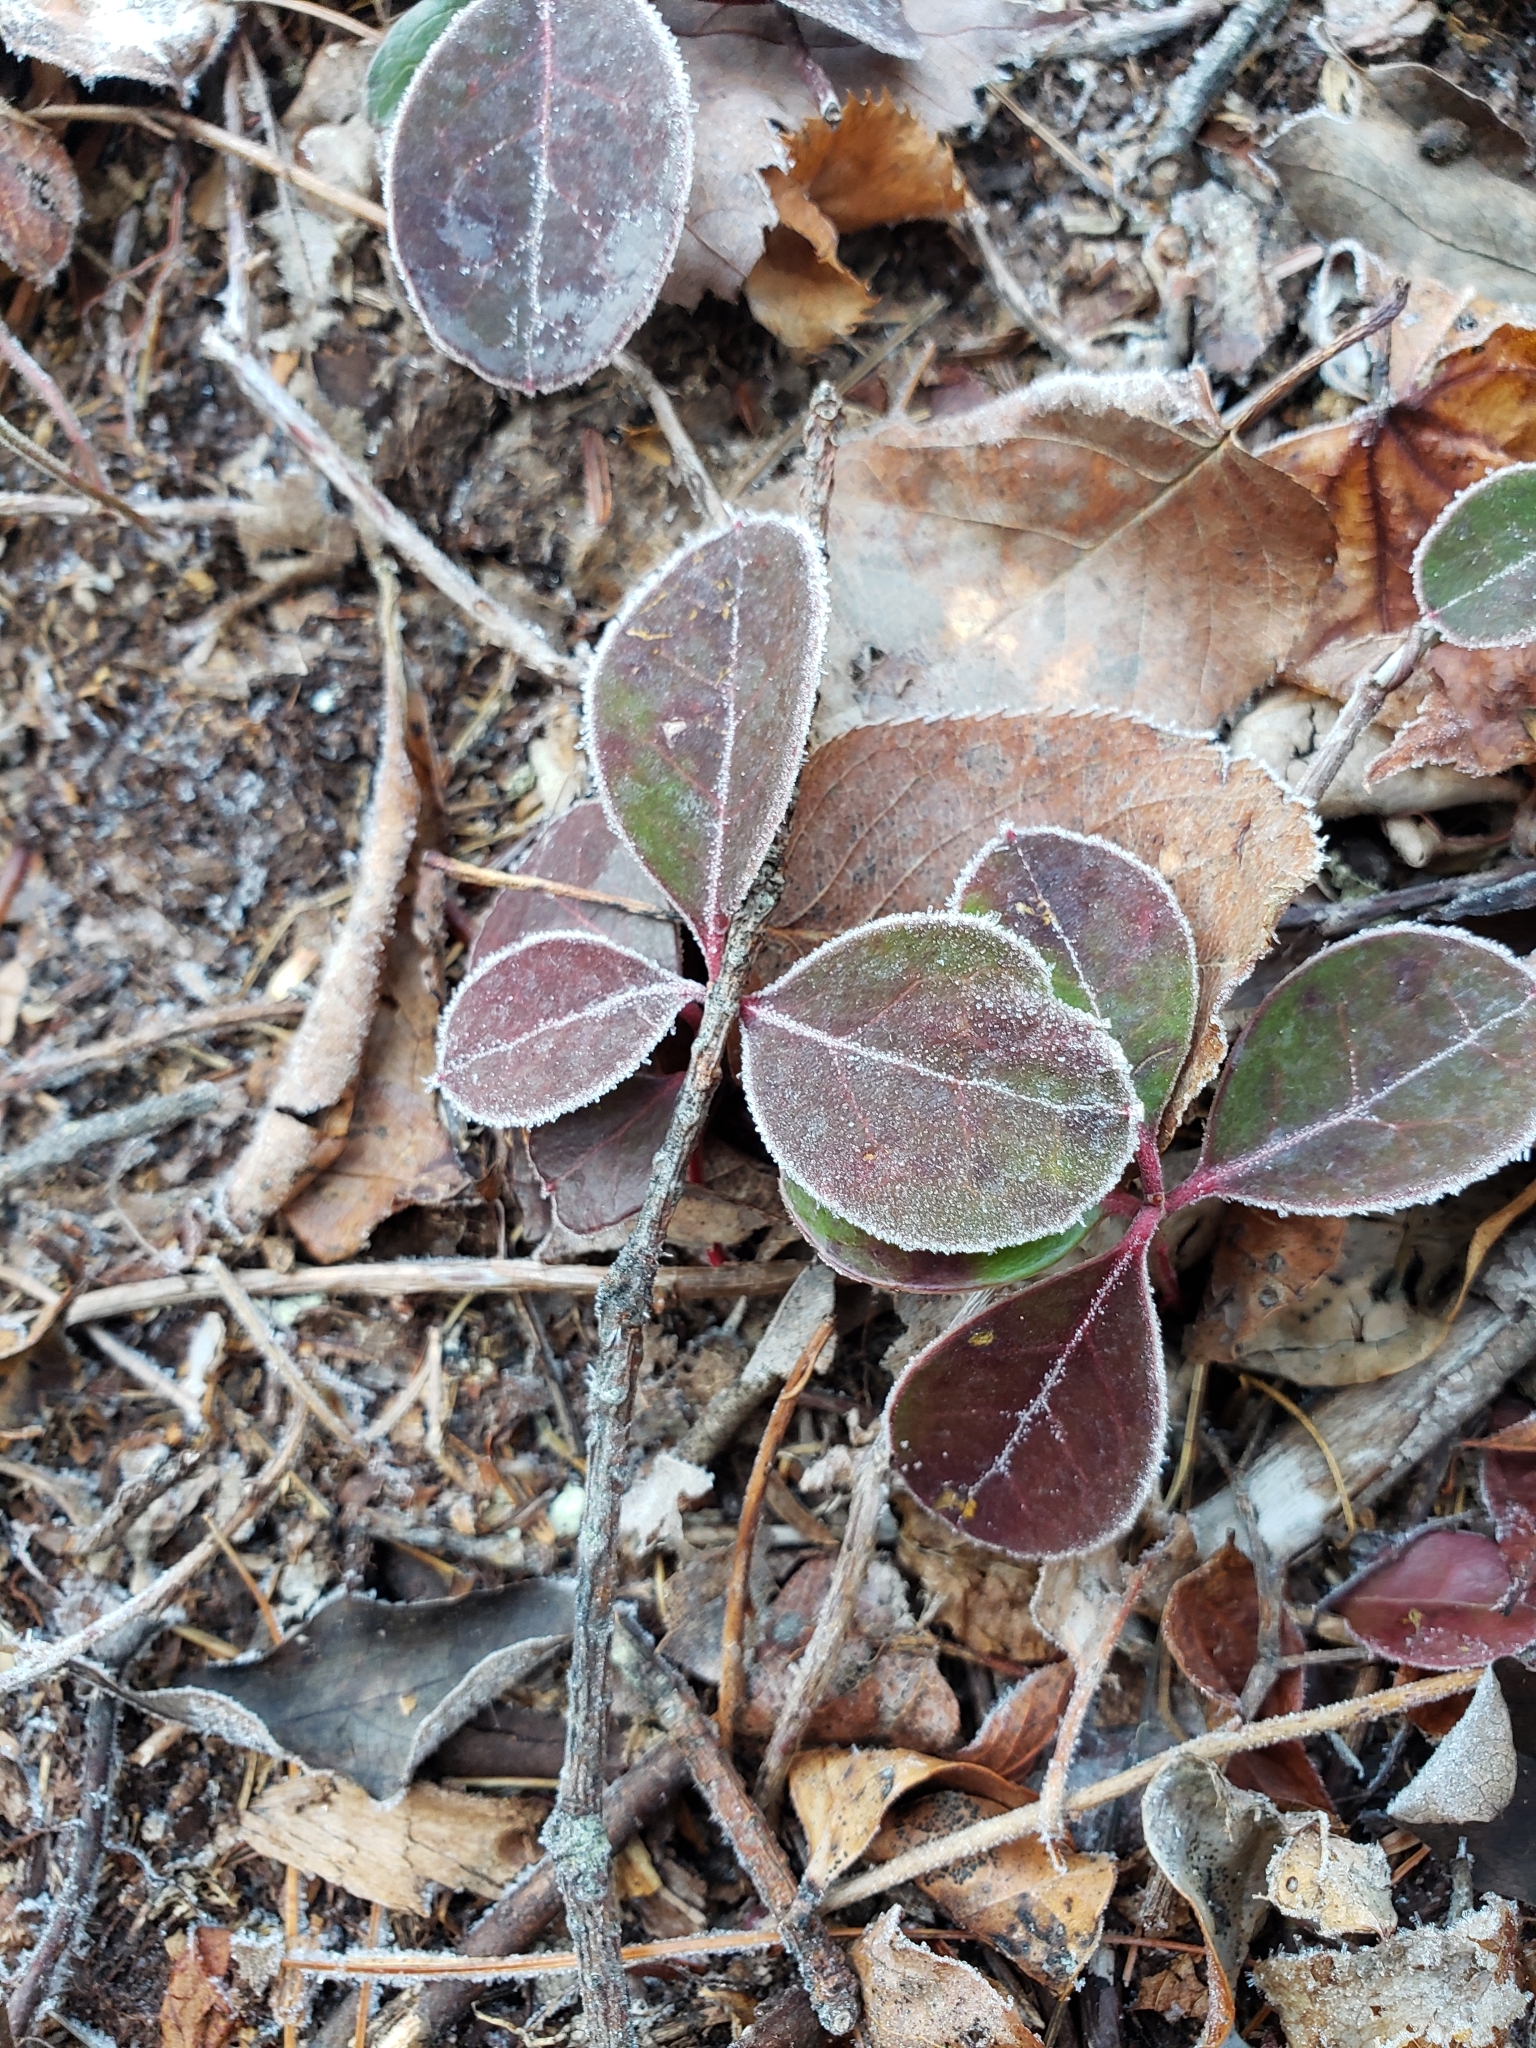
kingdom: Plantae
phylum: Tracheophyta
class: Magnoliopsida
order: Ericales
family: Ericaceae
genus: Gaultheria
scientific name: Gaultheria procumbens
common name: Checkerberry
